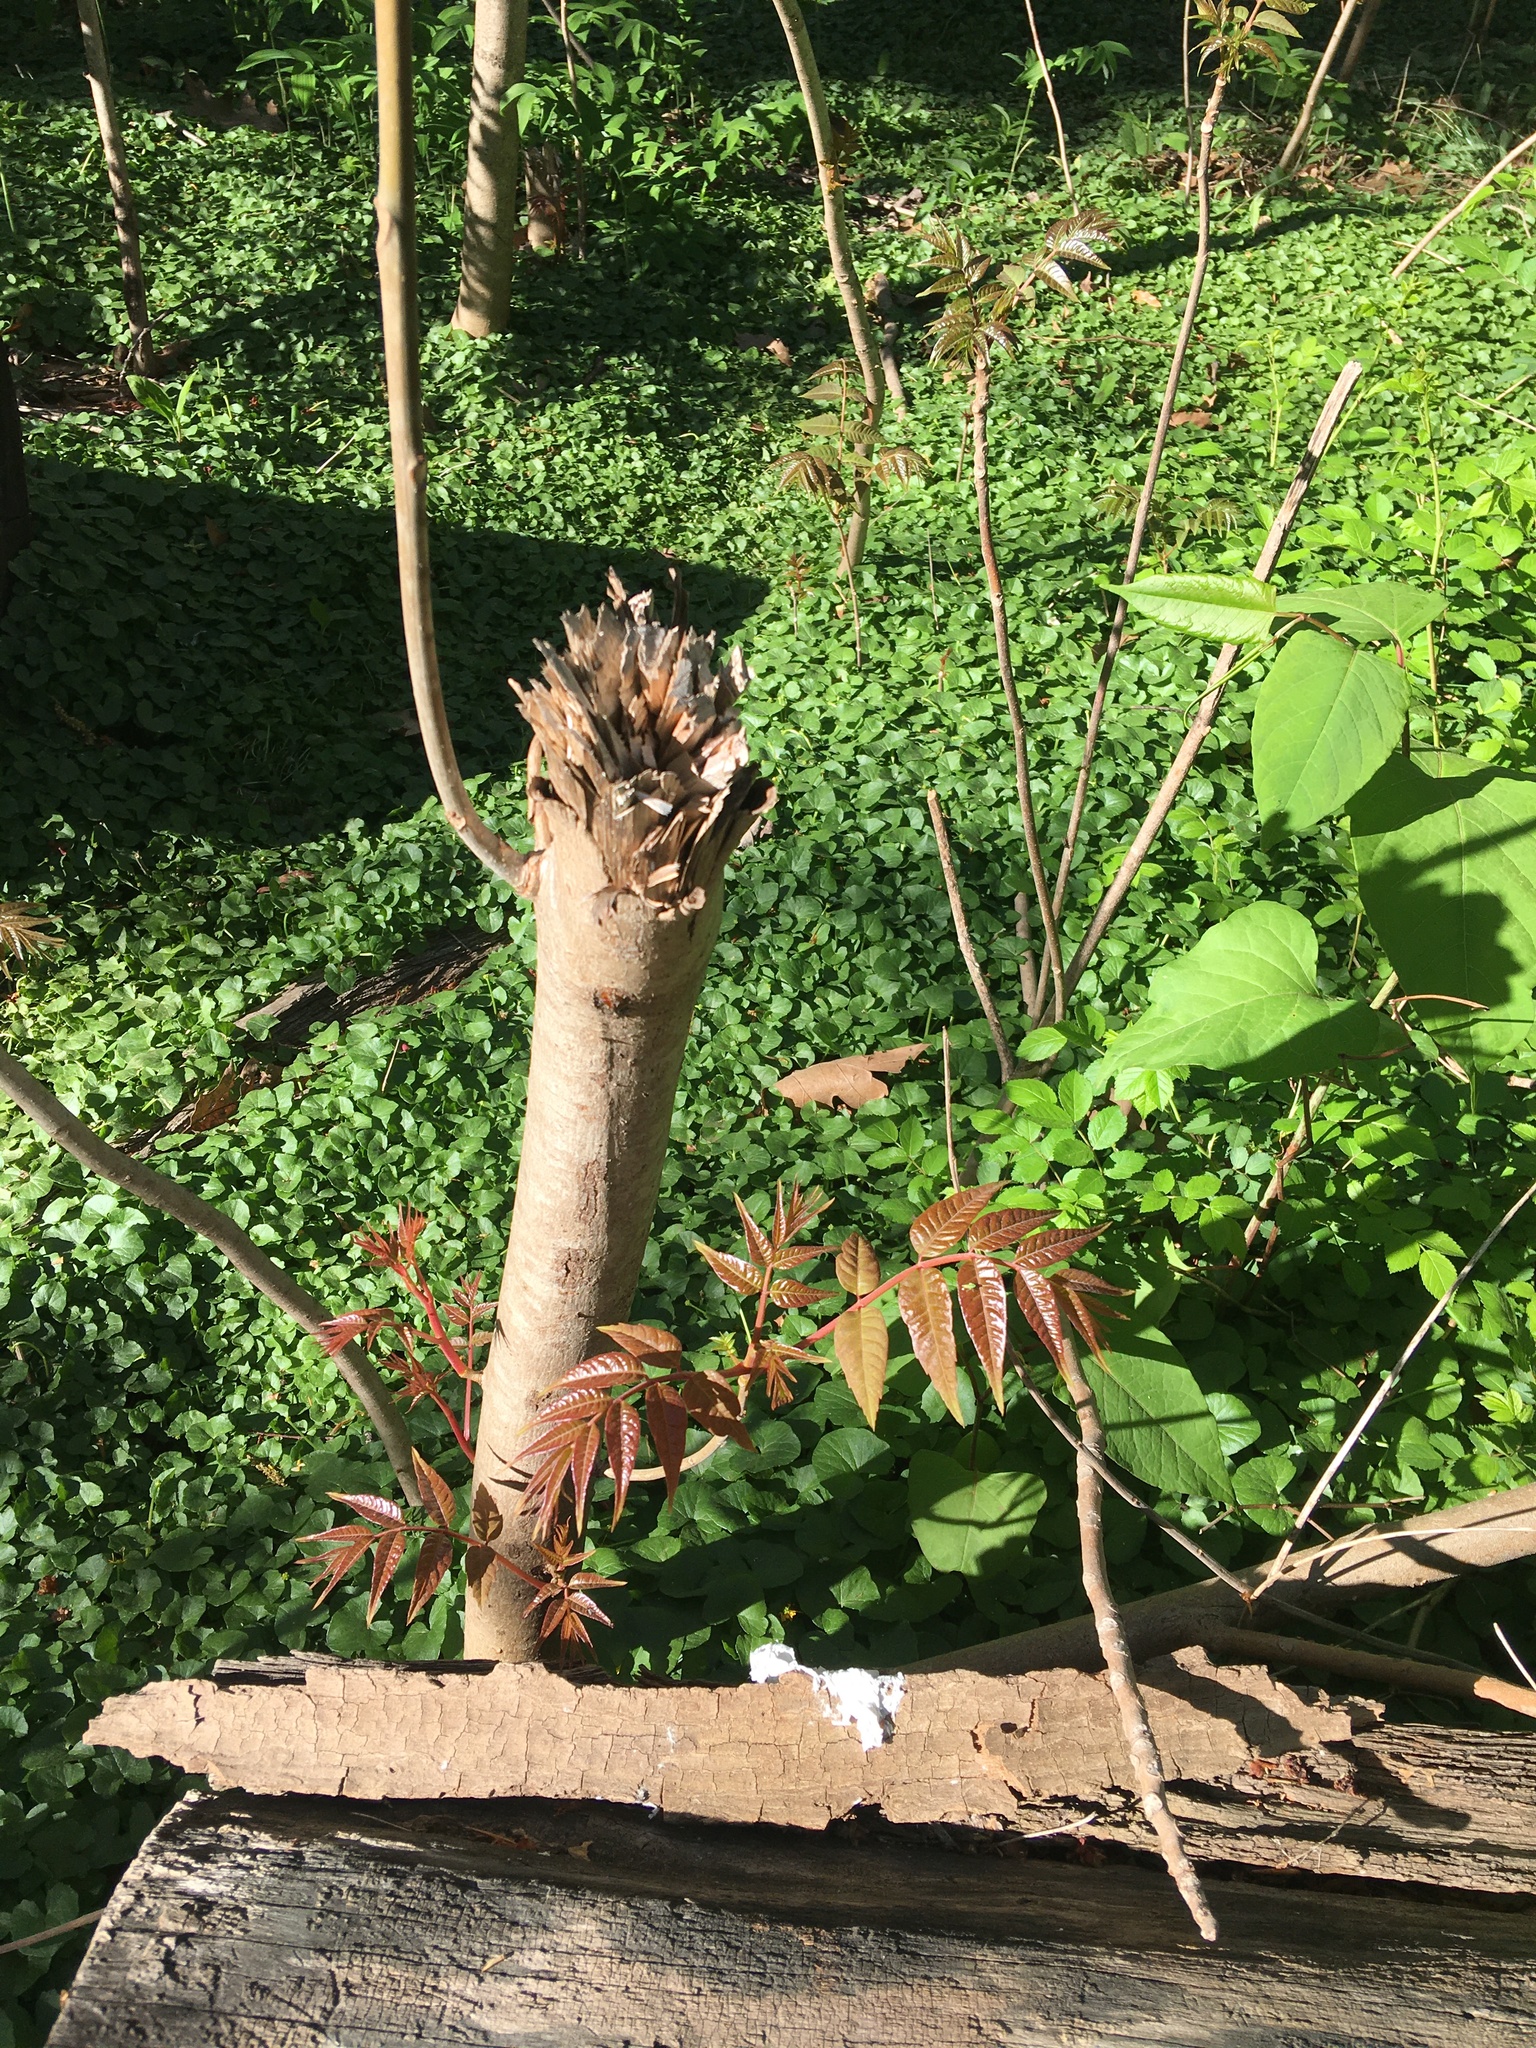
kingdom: Plantae
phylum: Tracheophyta
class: Magnoliopsida
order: Sapindales
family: Meliaceae
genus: Toona
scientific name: Toona sinensis
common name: Red toon
